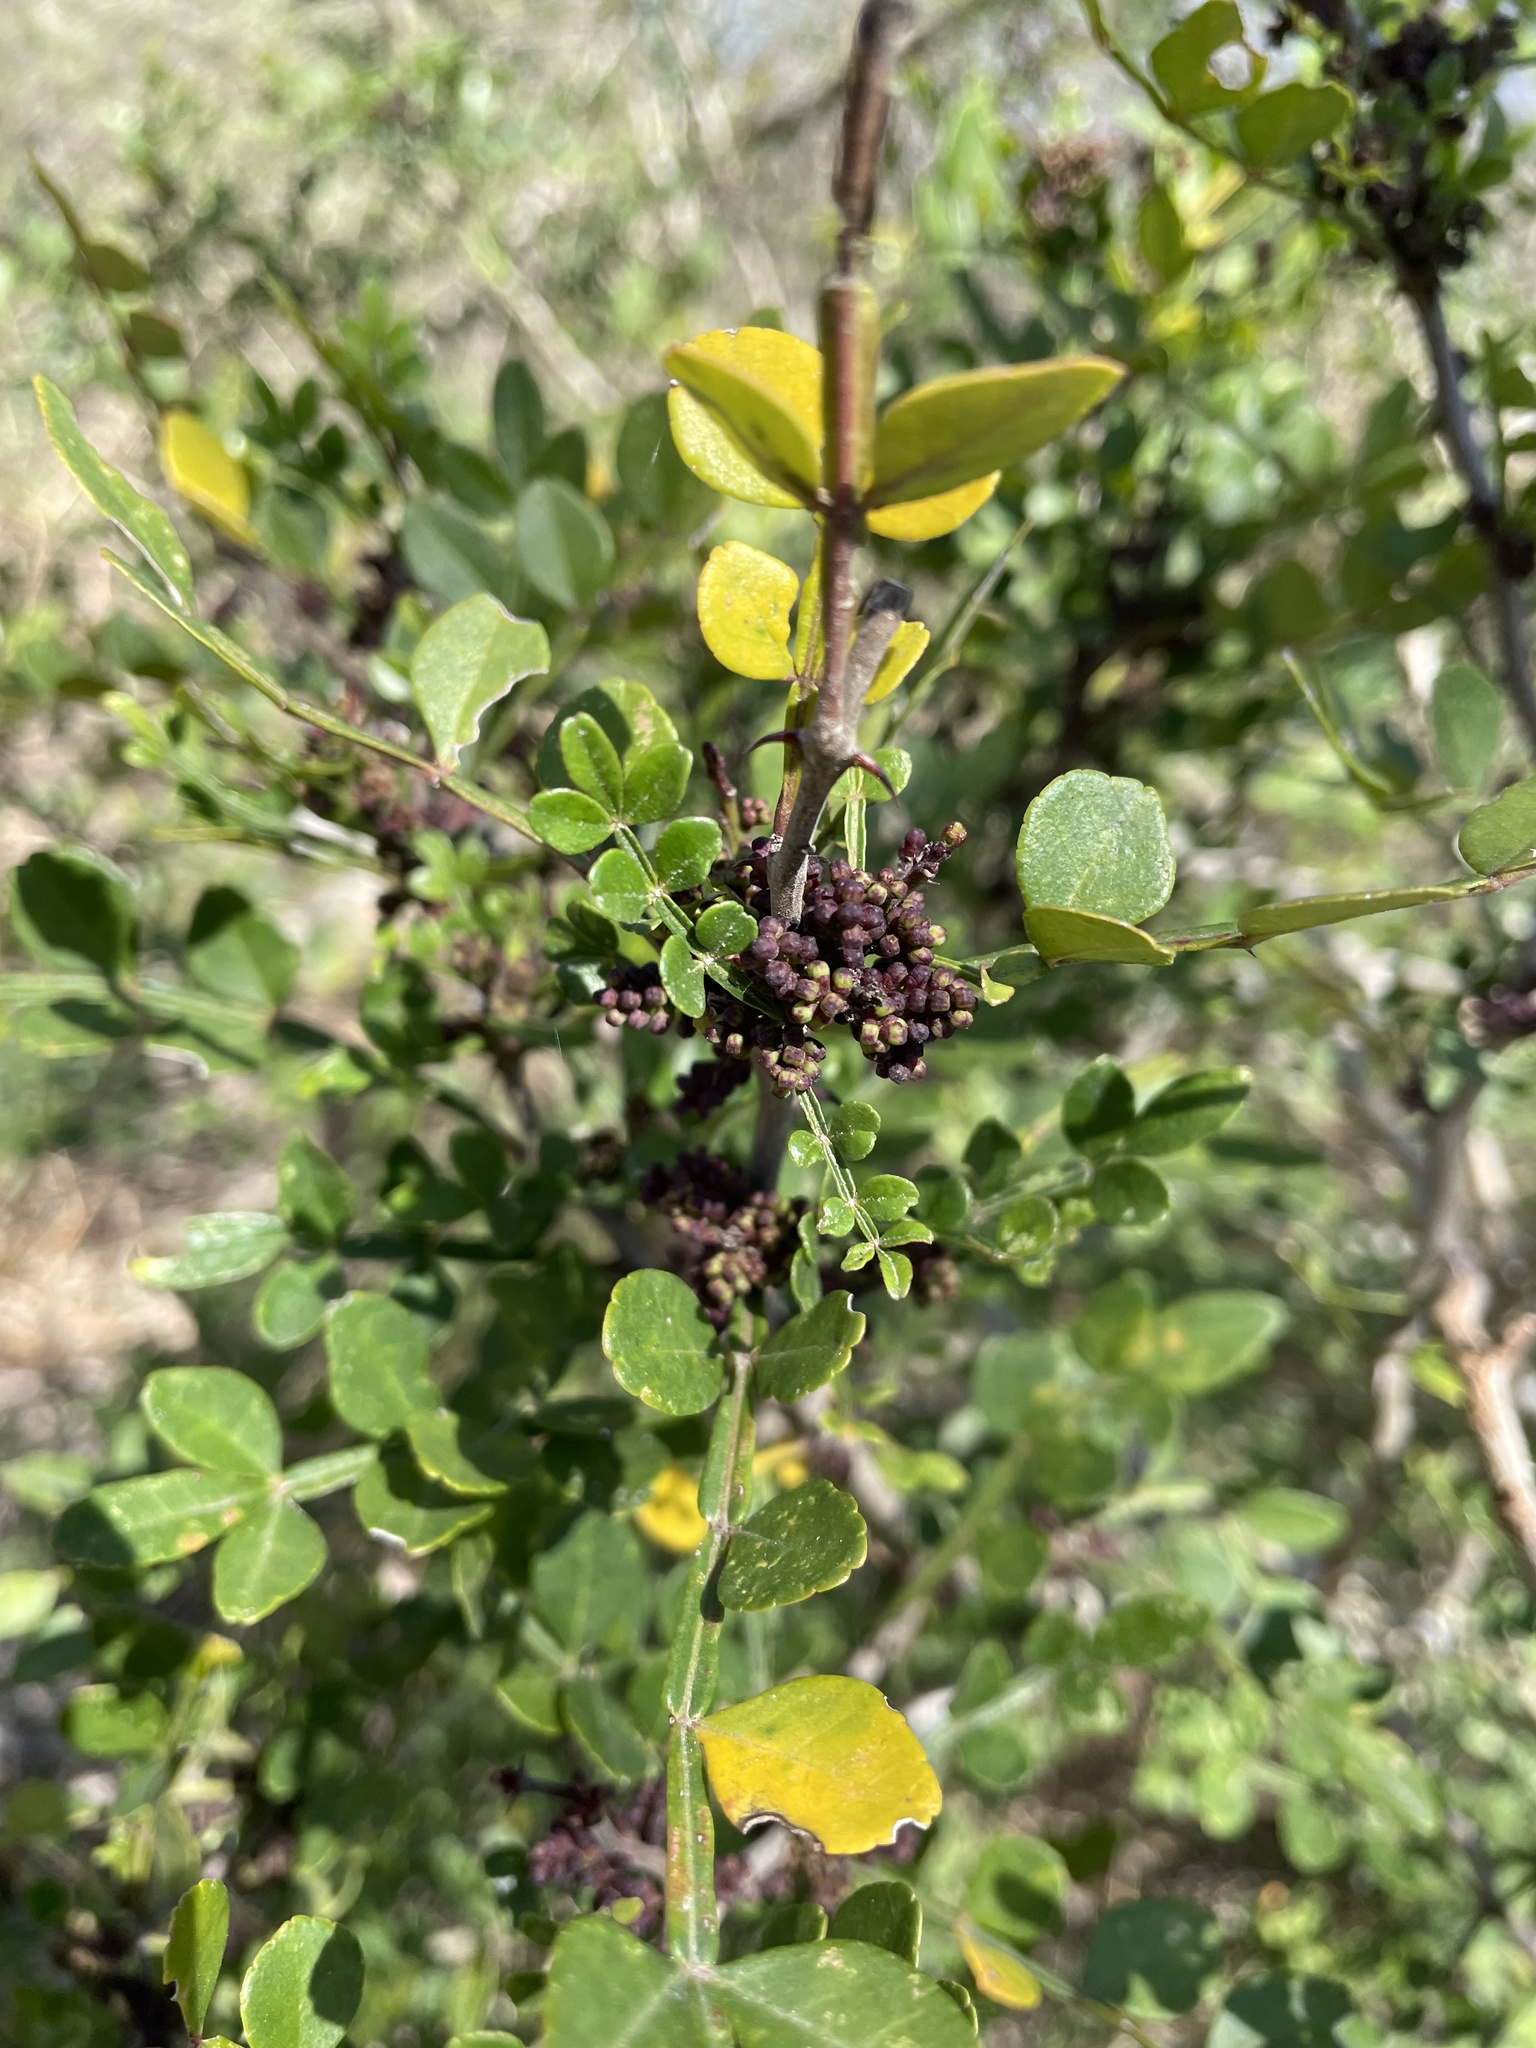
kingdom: Plantae
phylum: Tracheophyta
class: Magnoliopsida
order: Sapindales
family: Rutaceae
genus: Zanthoxylum
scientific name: Zanthoxylum fagara
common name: Lime prickly-ash
